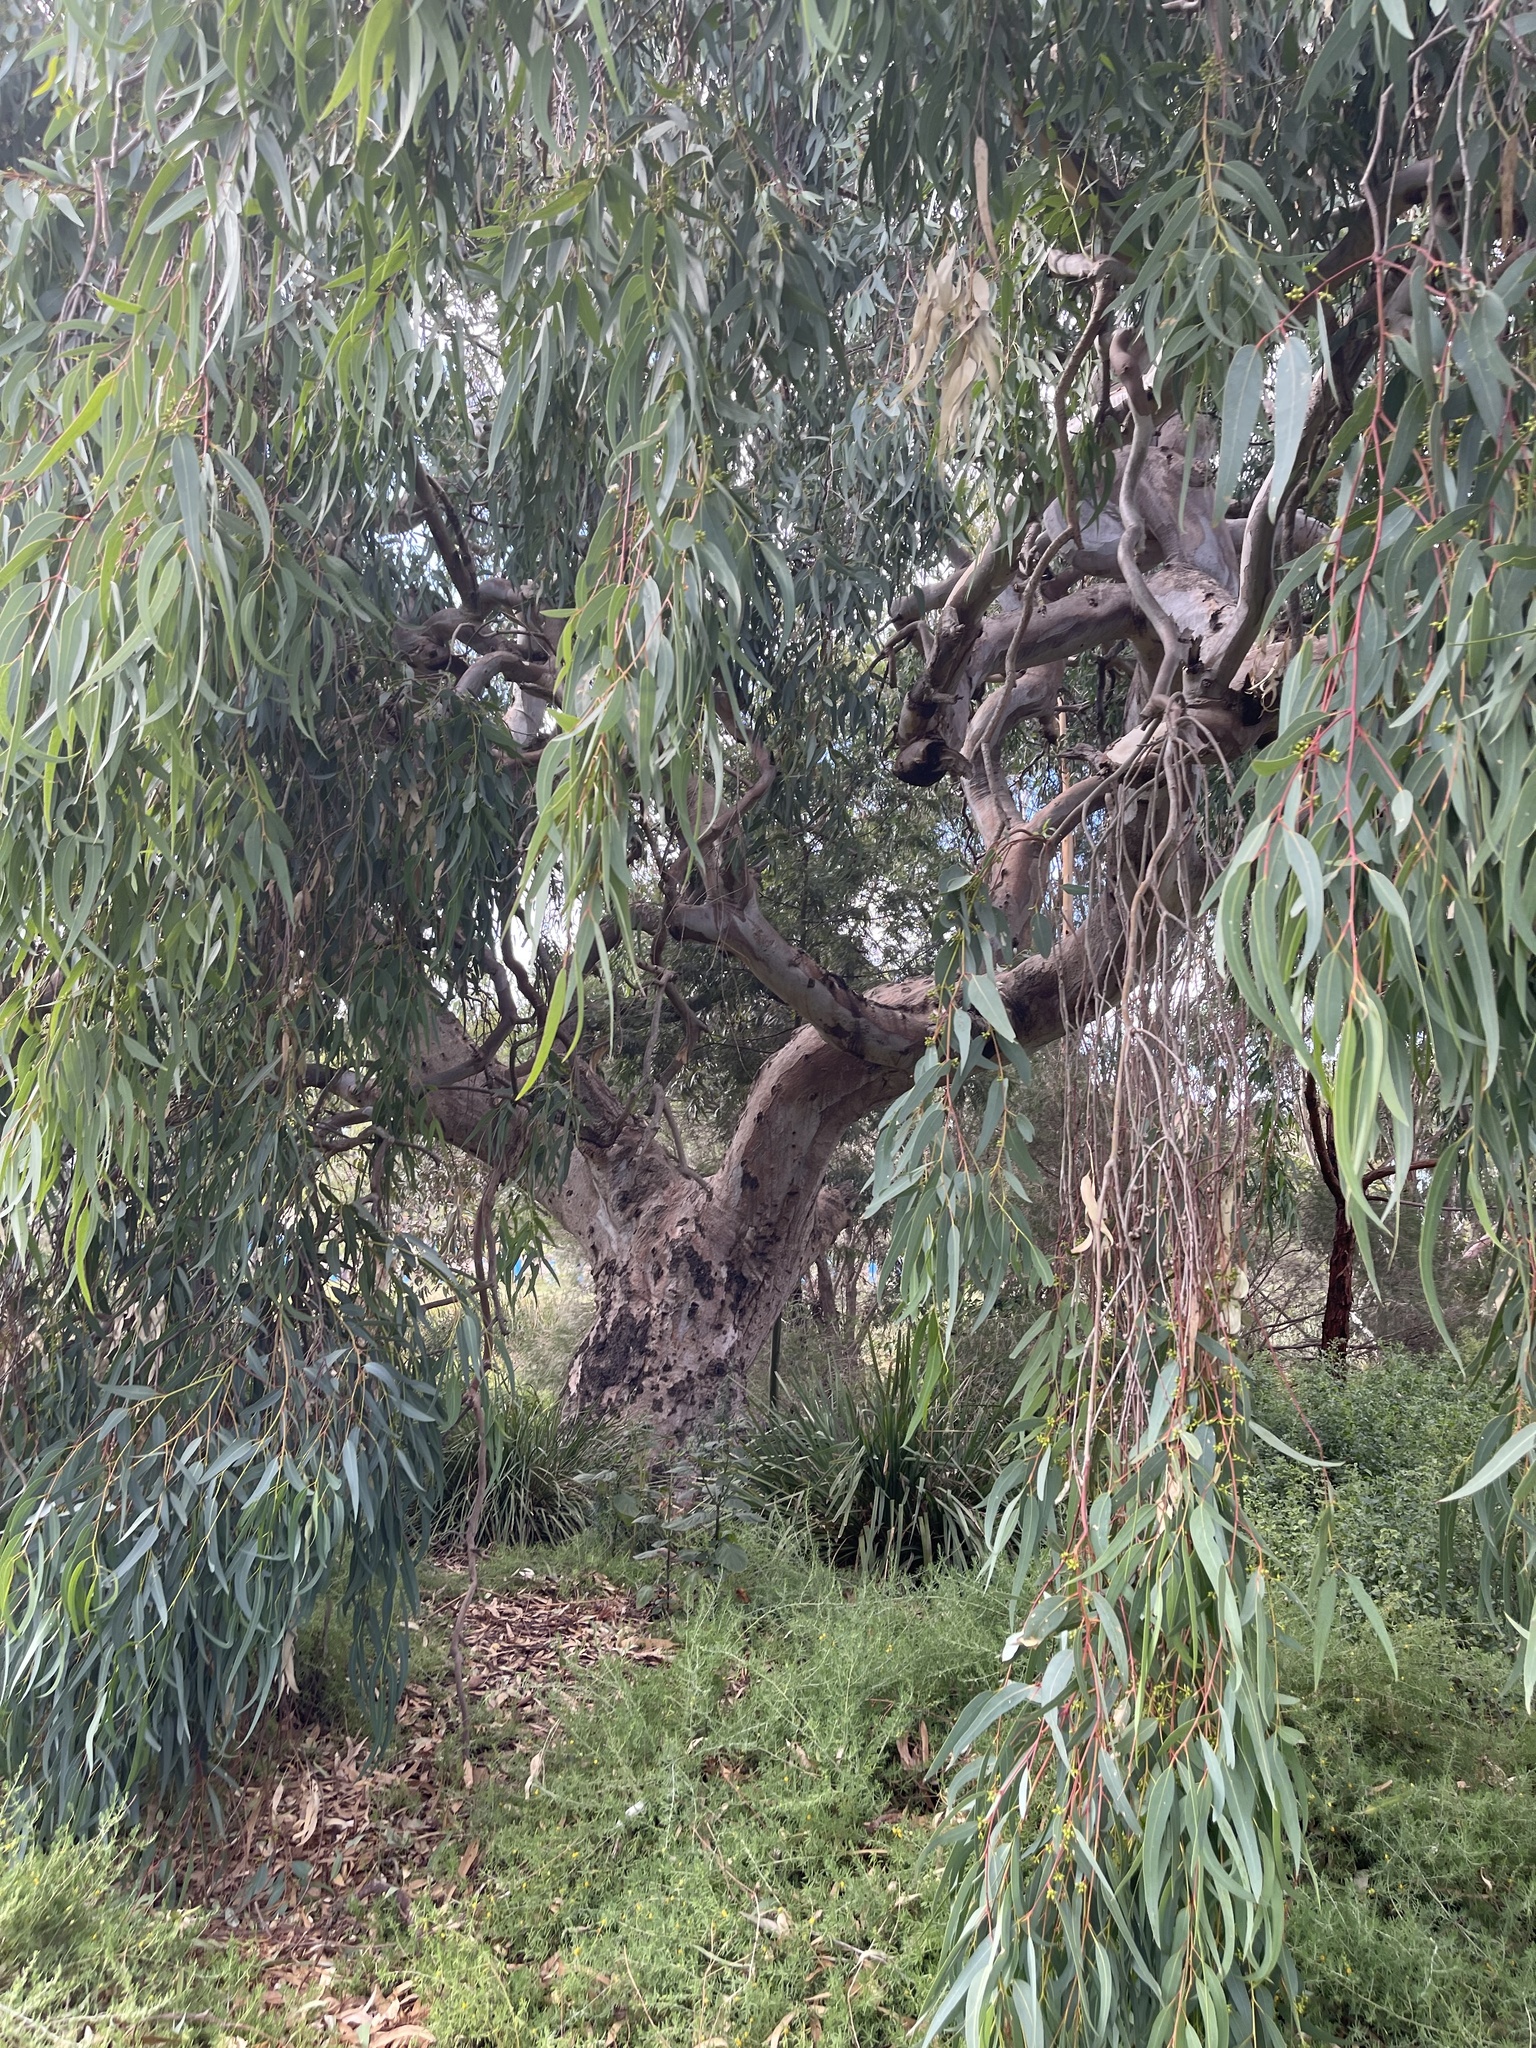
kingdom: Plantae
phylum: Tracheophyta
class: Magnoliopsida
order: Myrtales
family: Myrtaceae
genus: Eucalyptus
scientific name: Eucalyptus camaldulensis
